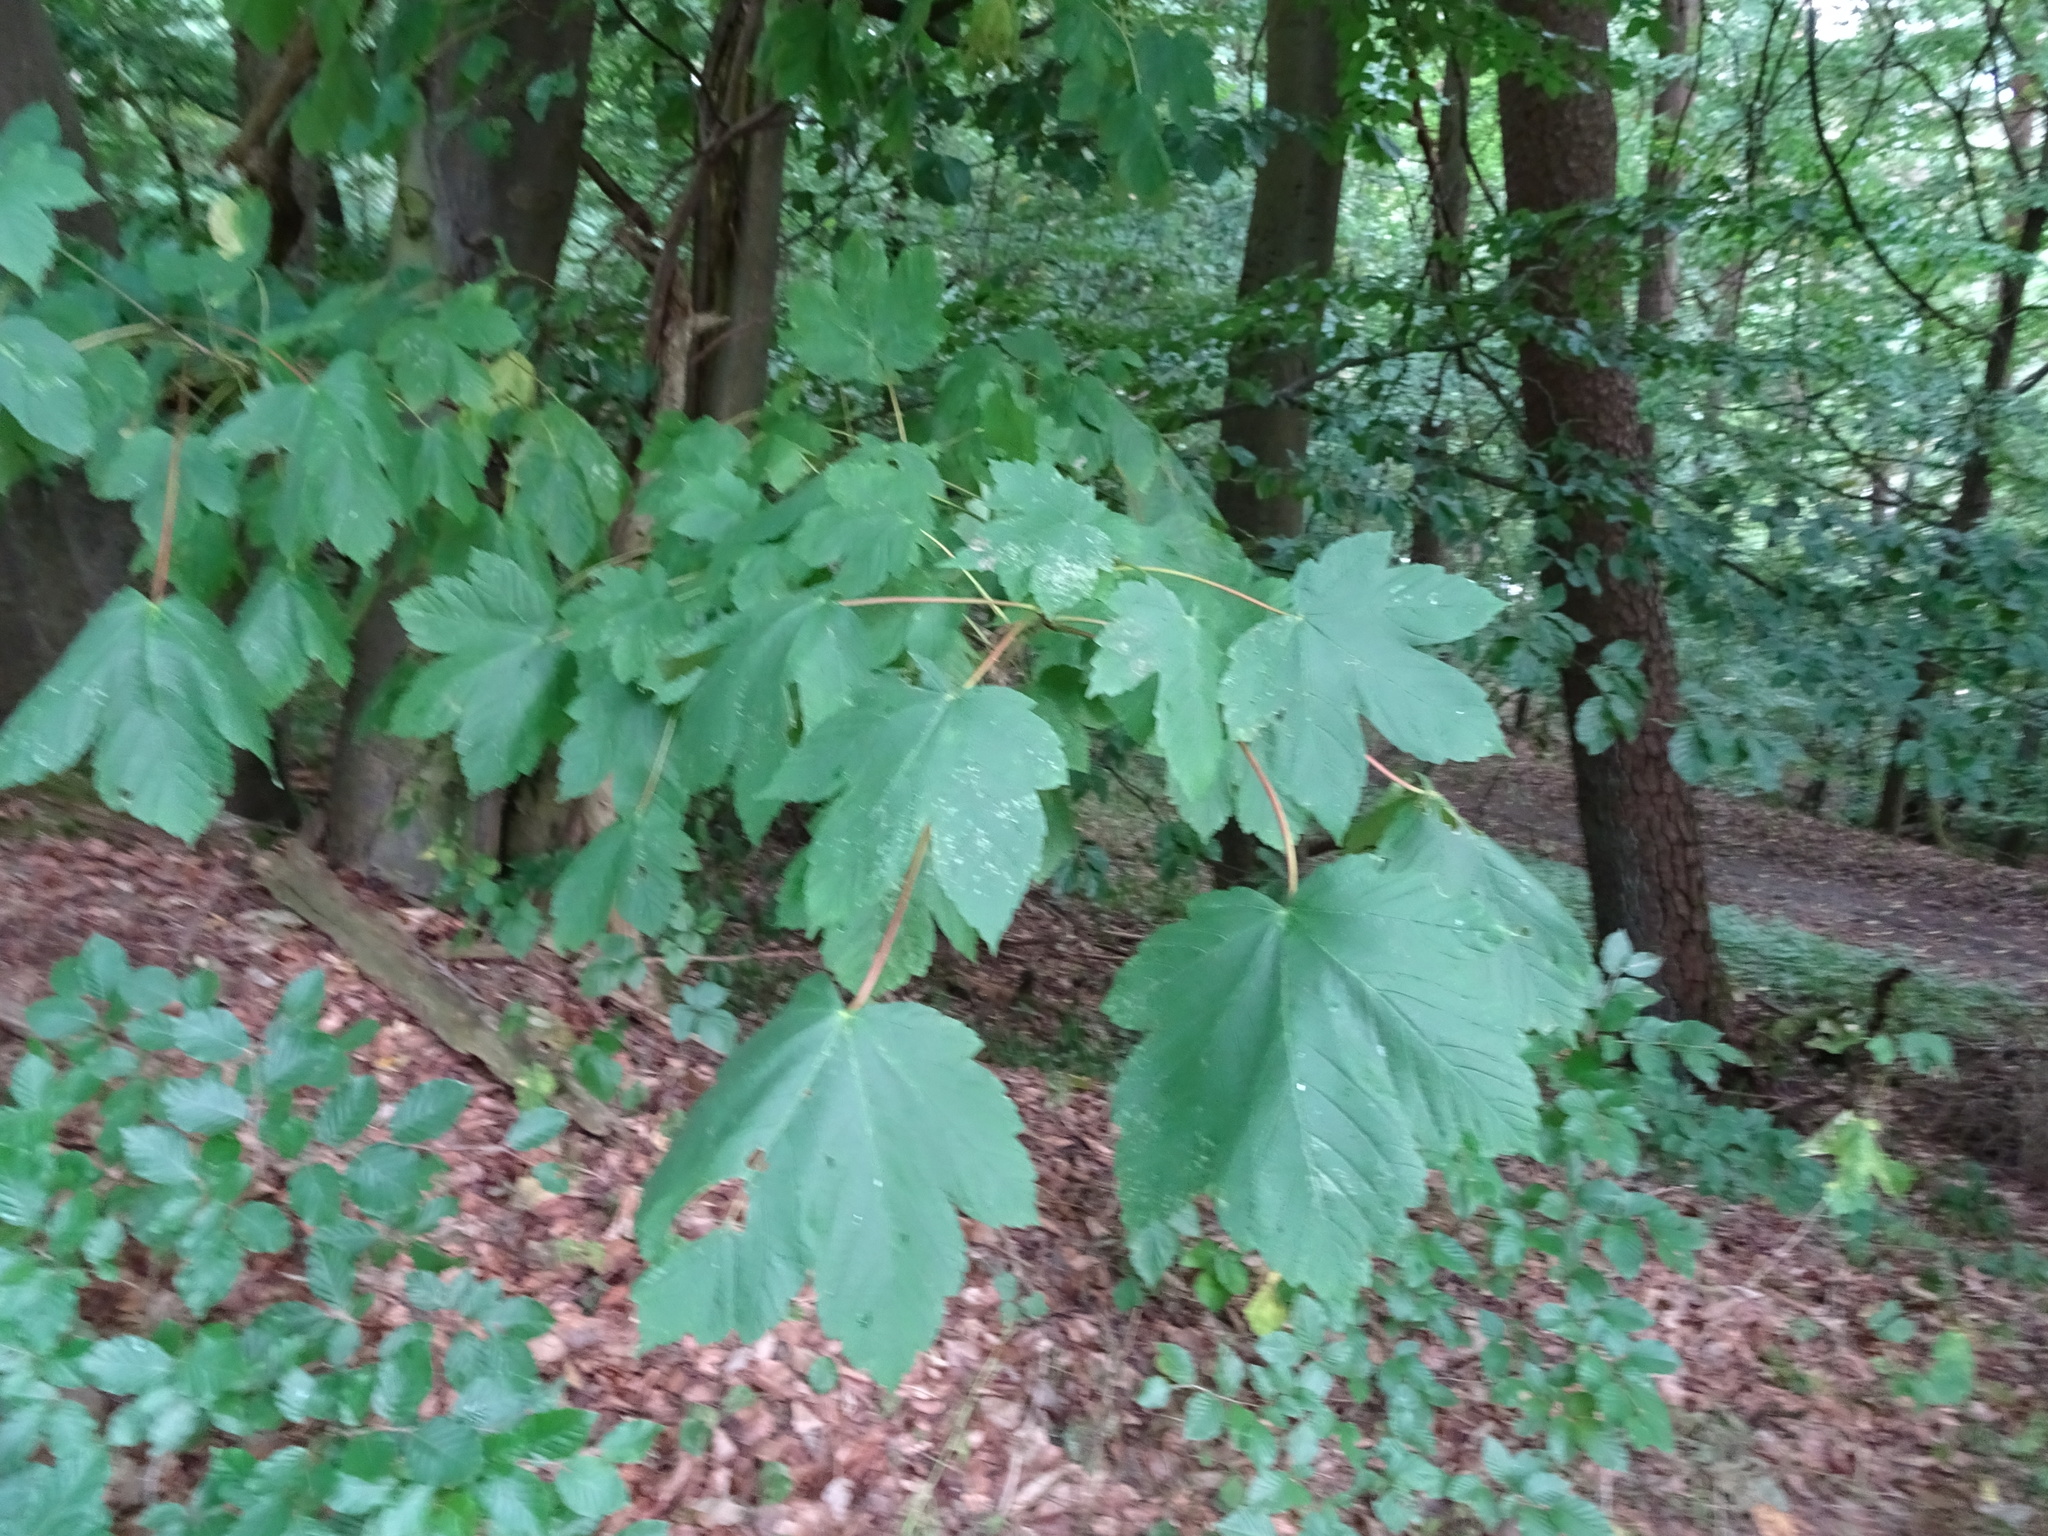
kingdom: Plantae
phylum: Tracheophyta
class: Magnoliopsida
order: Sapindales
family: Sapindaceae
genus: Acer
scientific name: Acer pseudoplatanus
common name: Sycamore
